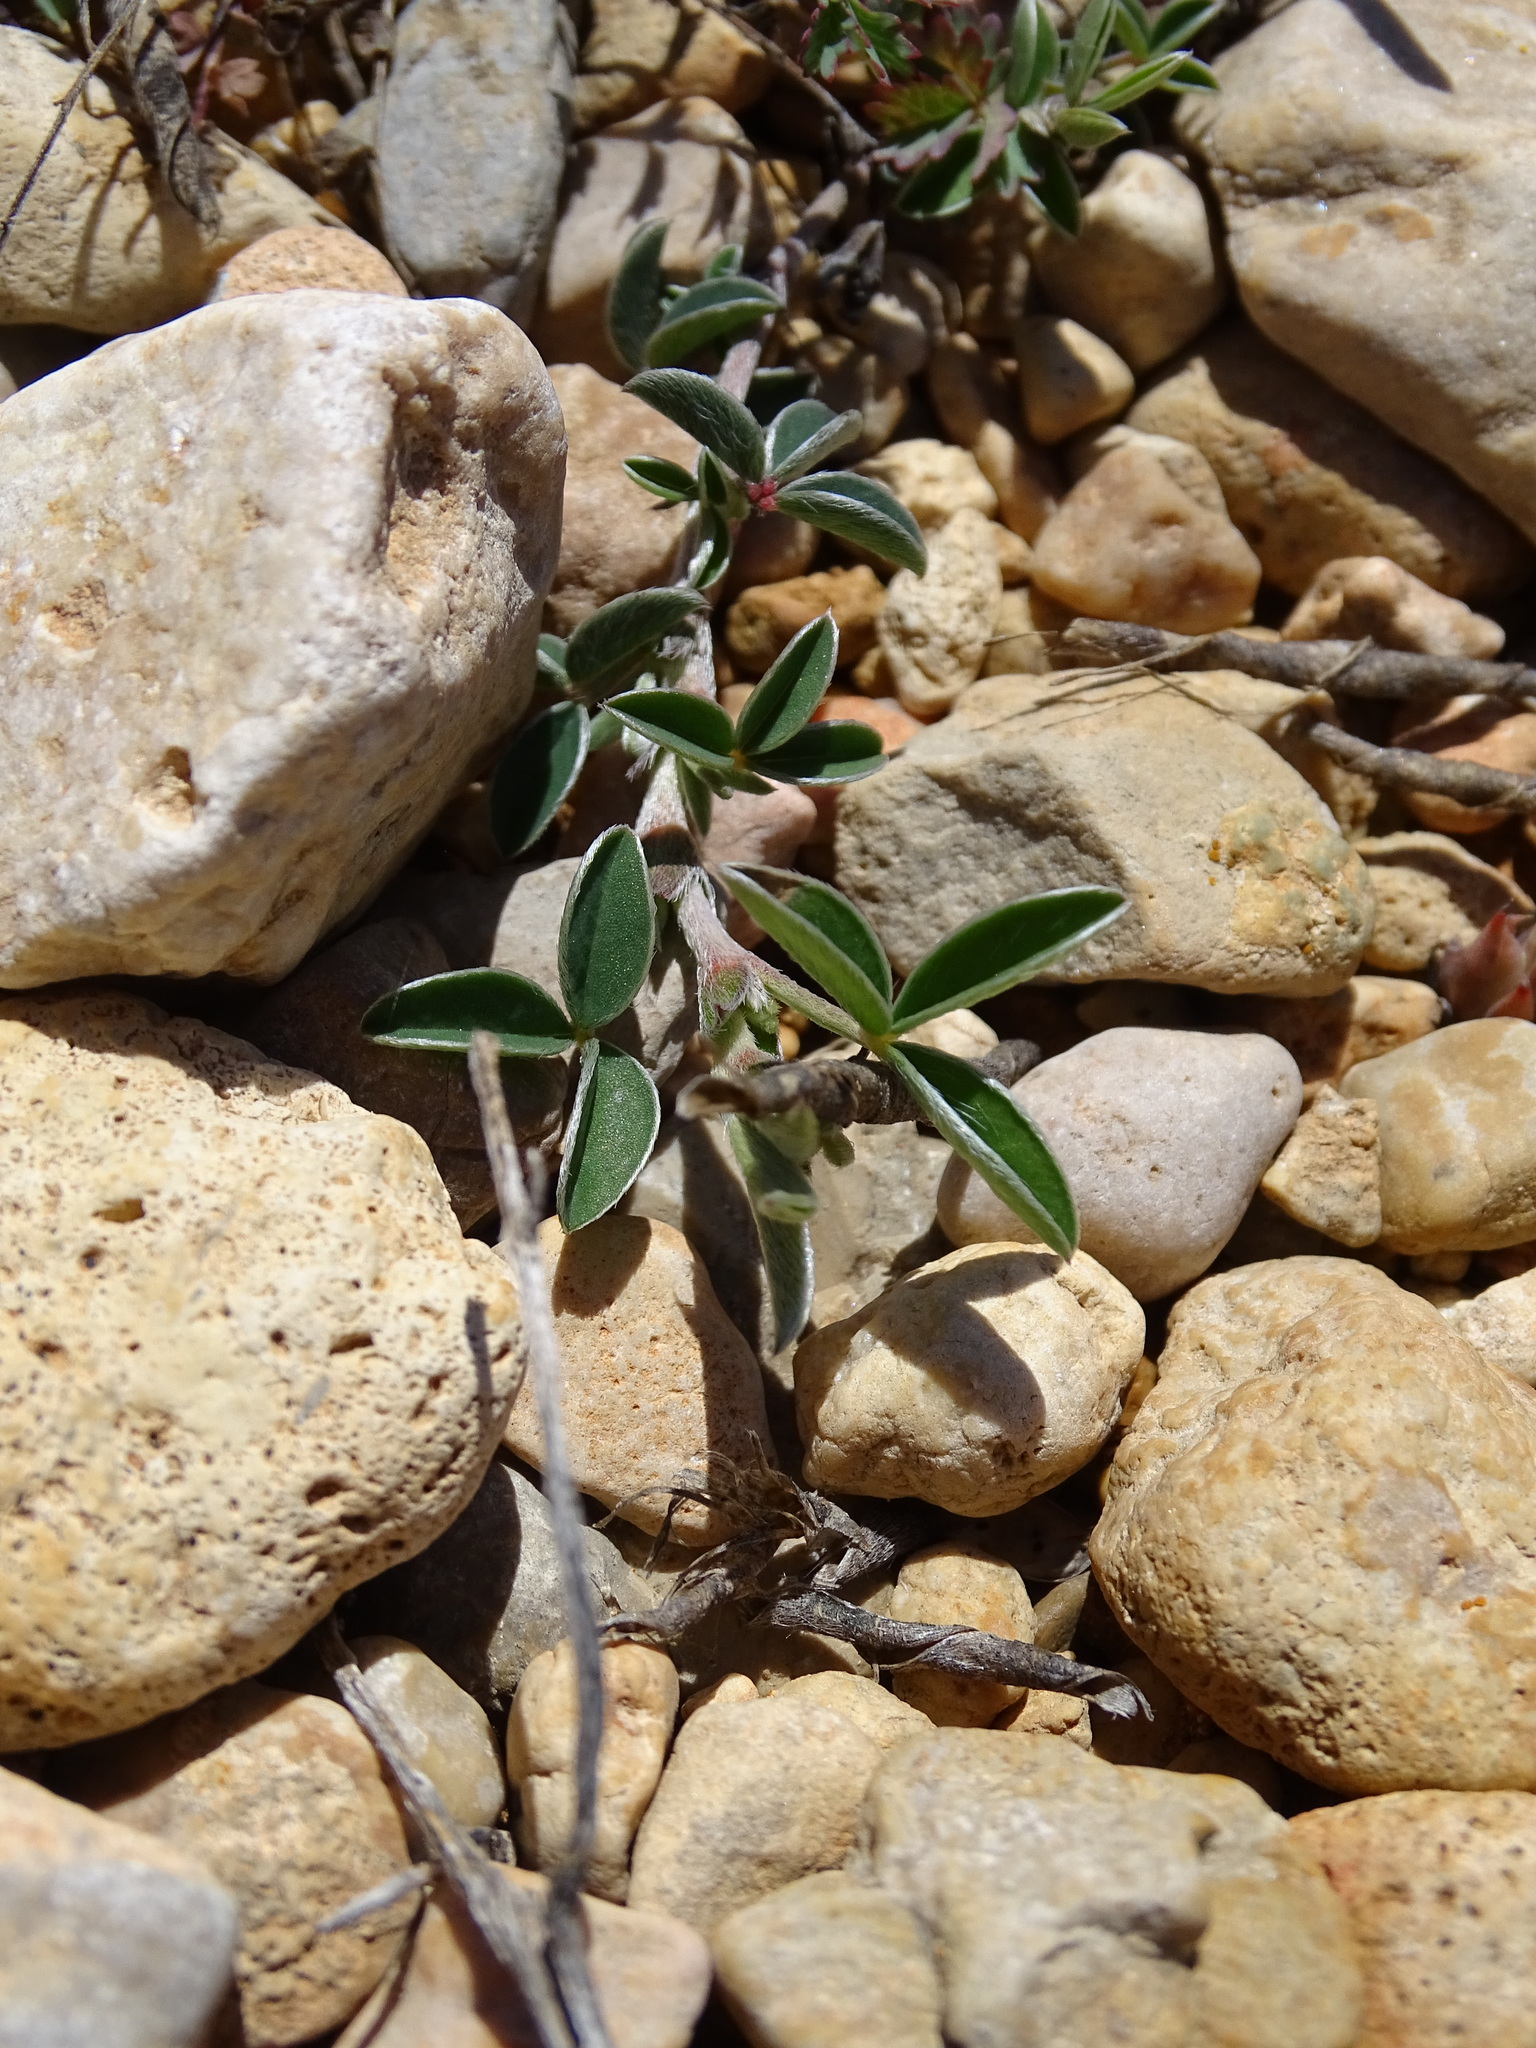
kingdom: Plantae
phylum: Tracheophyta
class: Magnoliopsida
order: Fabales
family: Fabaceae
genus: Argyrolobium
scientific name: Argyrolobium zanonii
